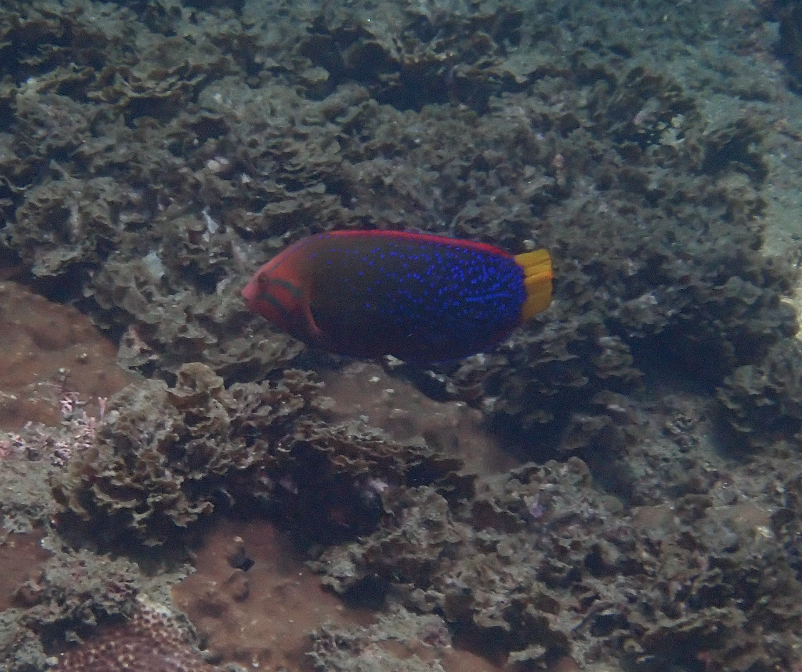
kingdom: Animalia
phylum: Chordata
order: Perciformes
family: Labridae
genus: Coris
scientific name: Coris gaimard
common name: Yellowtail coris
